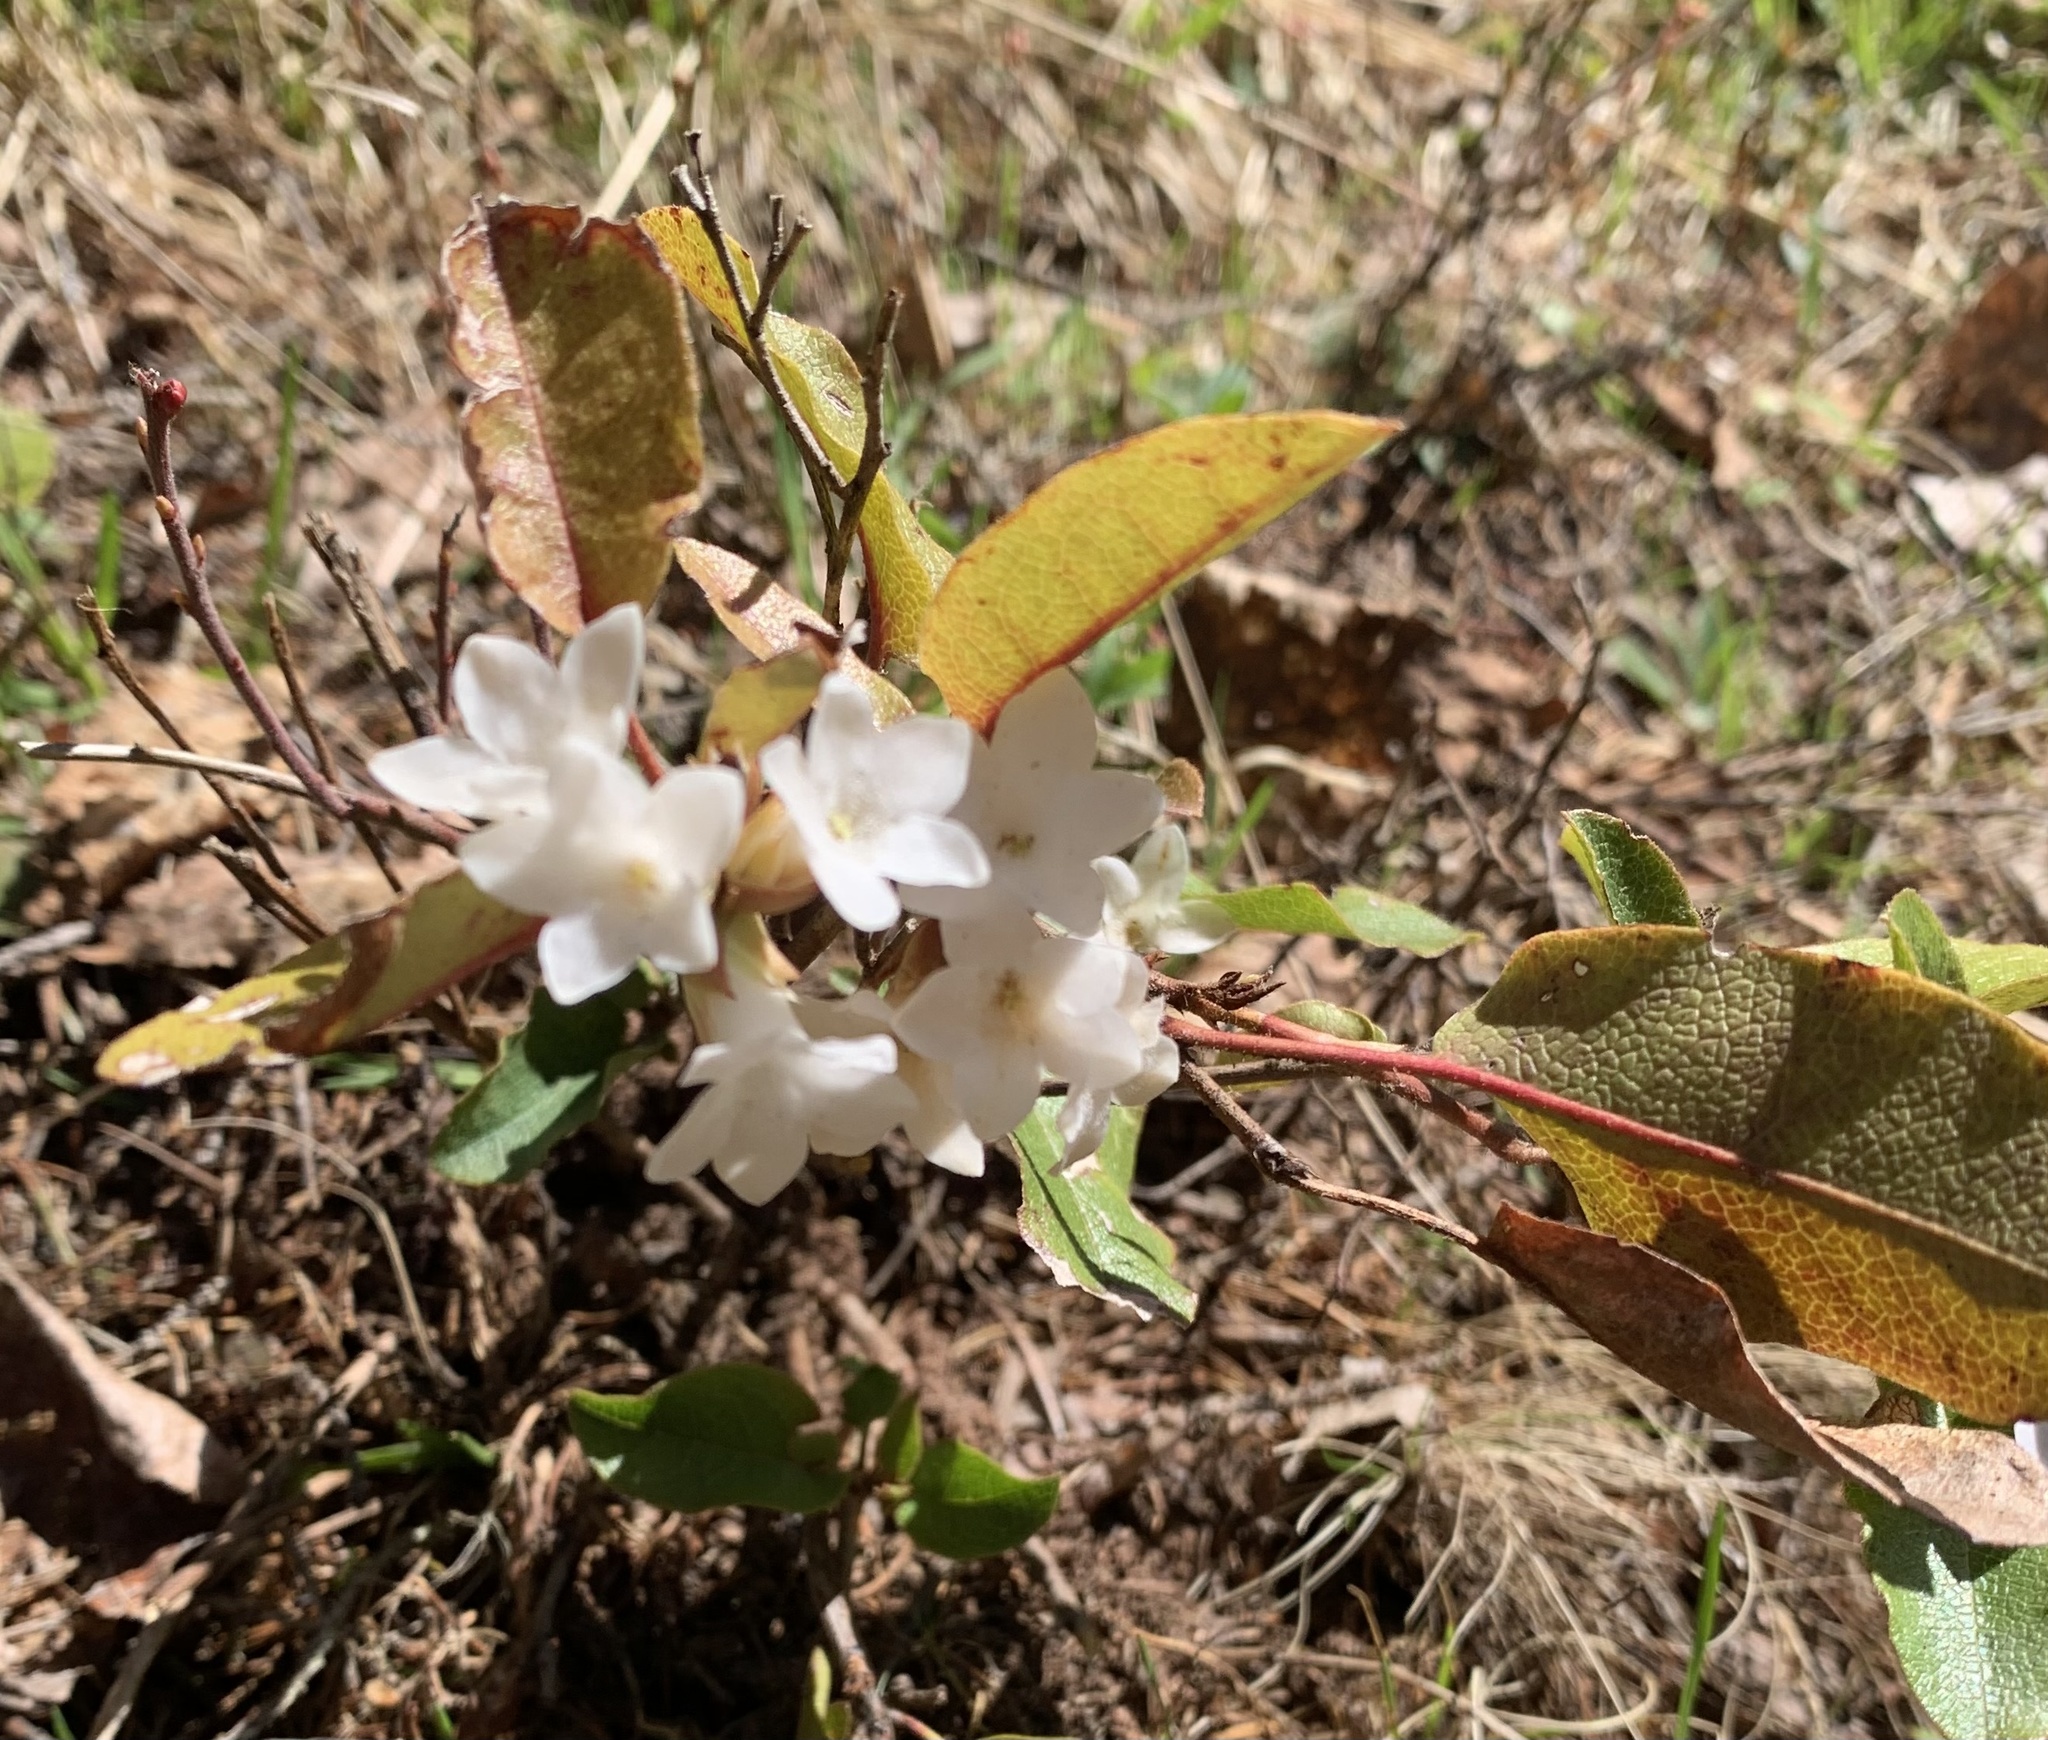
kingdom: Plantae
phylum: Tracheophyta
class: Magnoliopsida
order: Ericales
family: Ericaceae
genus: Epigaea
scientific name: Epigaea repens
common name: Gravelroot
